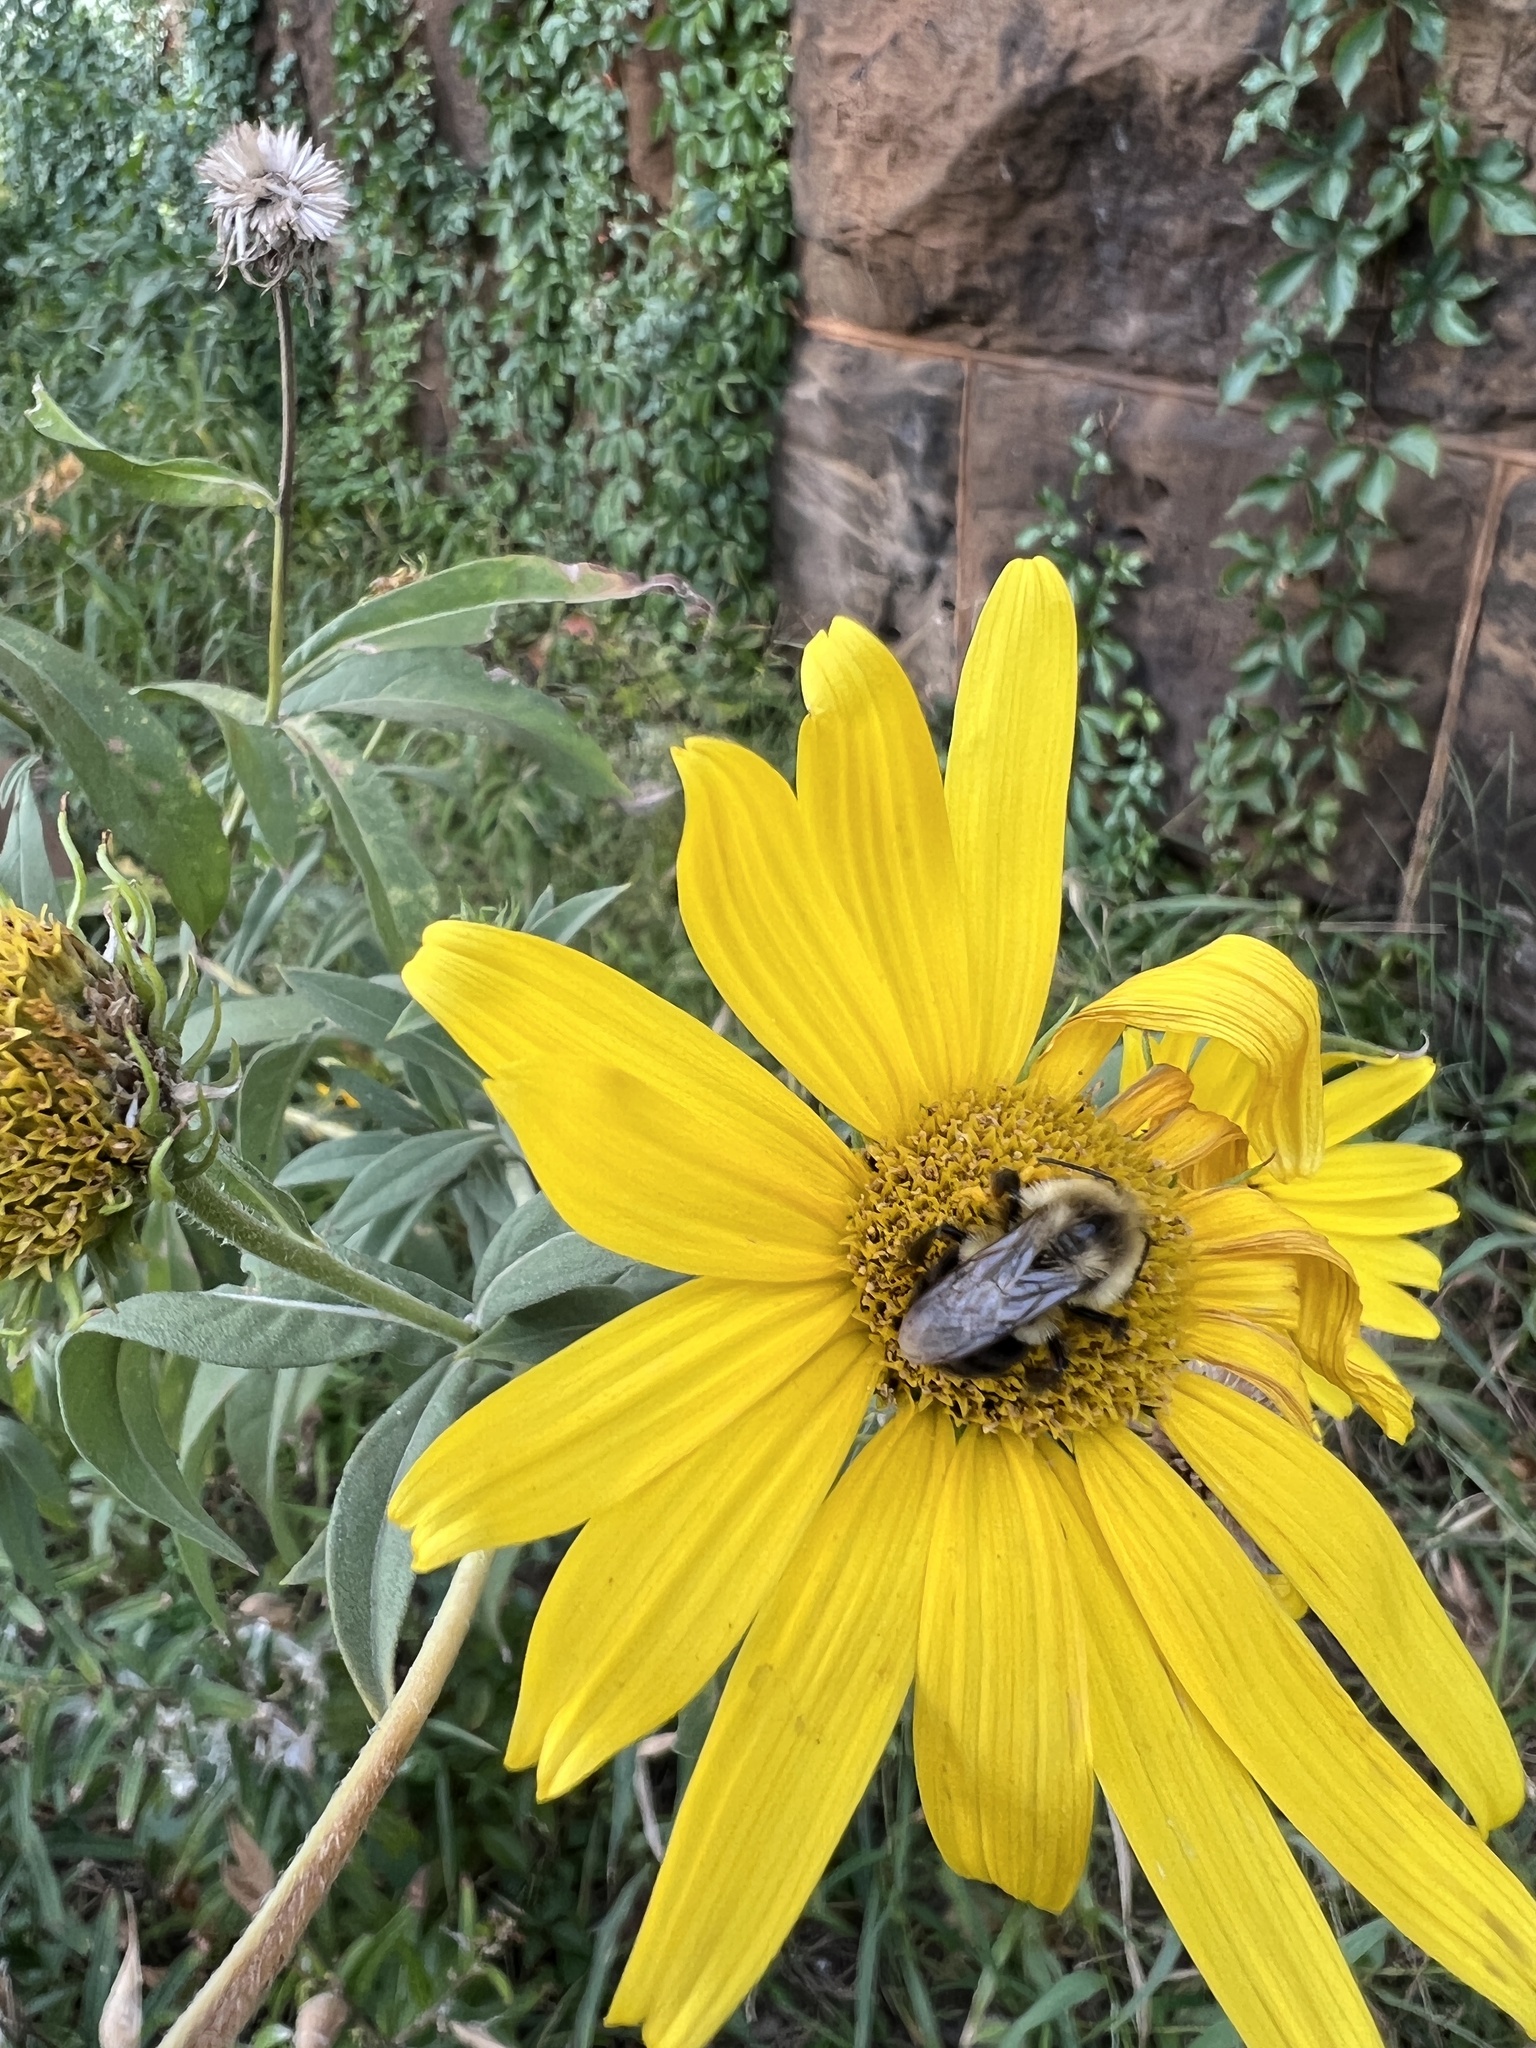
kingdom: Animalia
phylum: Arthropoda
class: Insecta
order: Hymenoptera
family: Apidae
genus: Bombus
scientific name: Bombus impatiens
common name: Common eastern bumble bee
